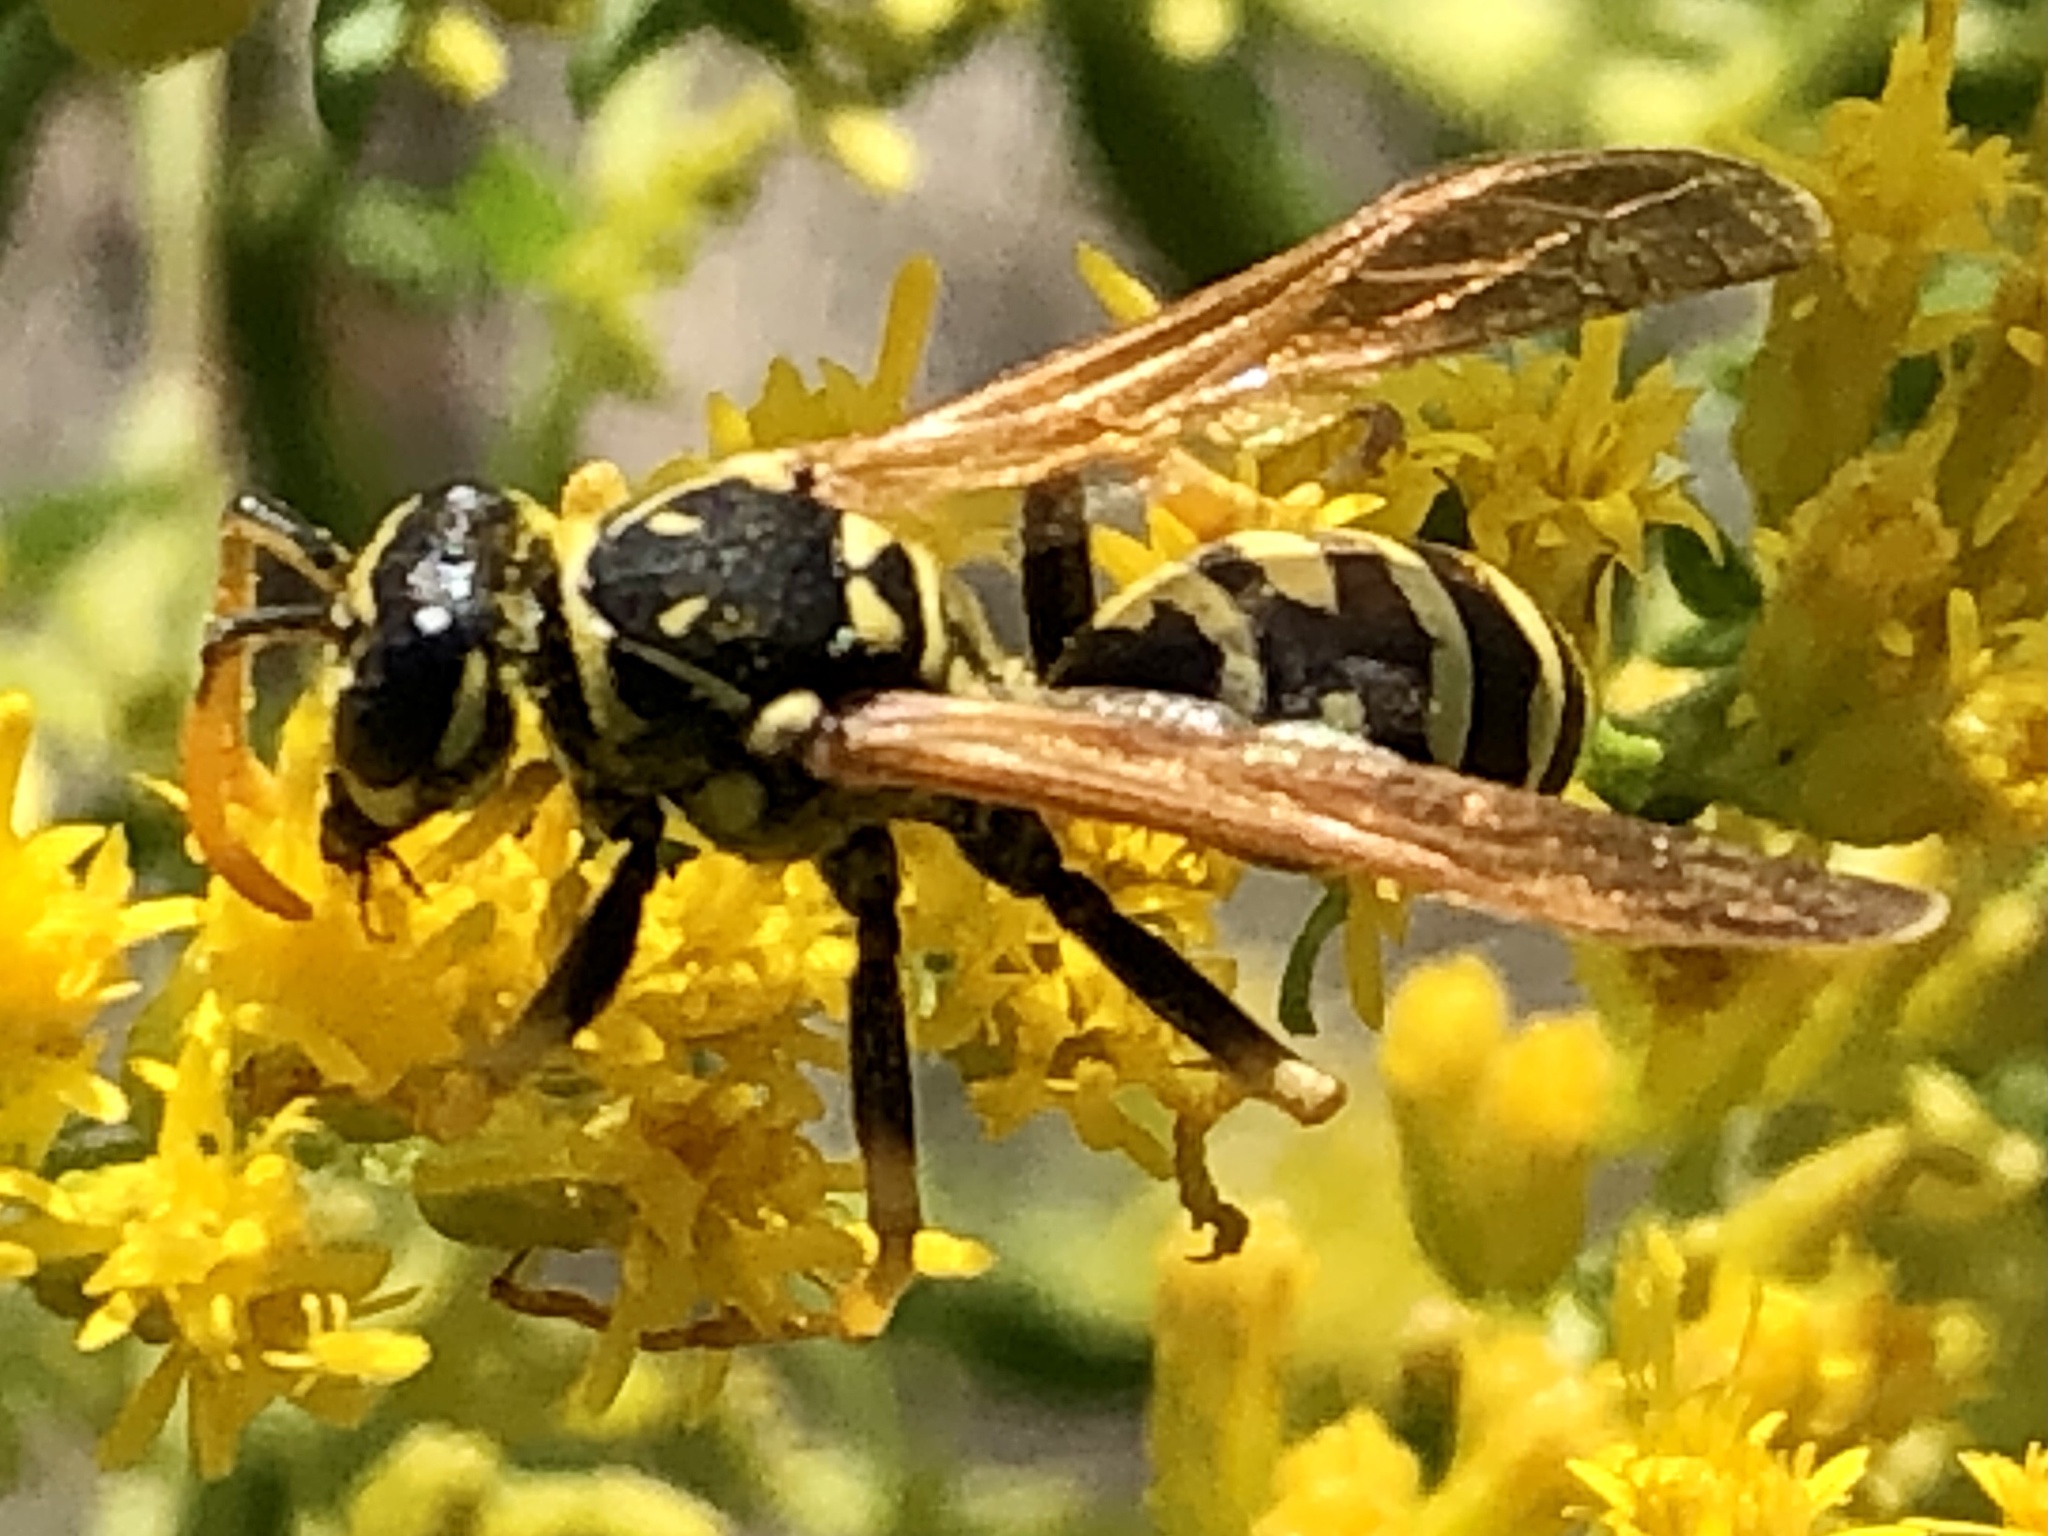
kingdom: Animalia
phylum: Arthropoda
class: Insecta
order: Hymenoptera
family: Eumenidae
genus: Polistes
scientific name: Polistes dominula
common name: Paper wasp
